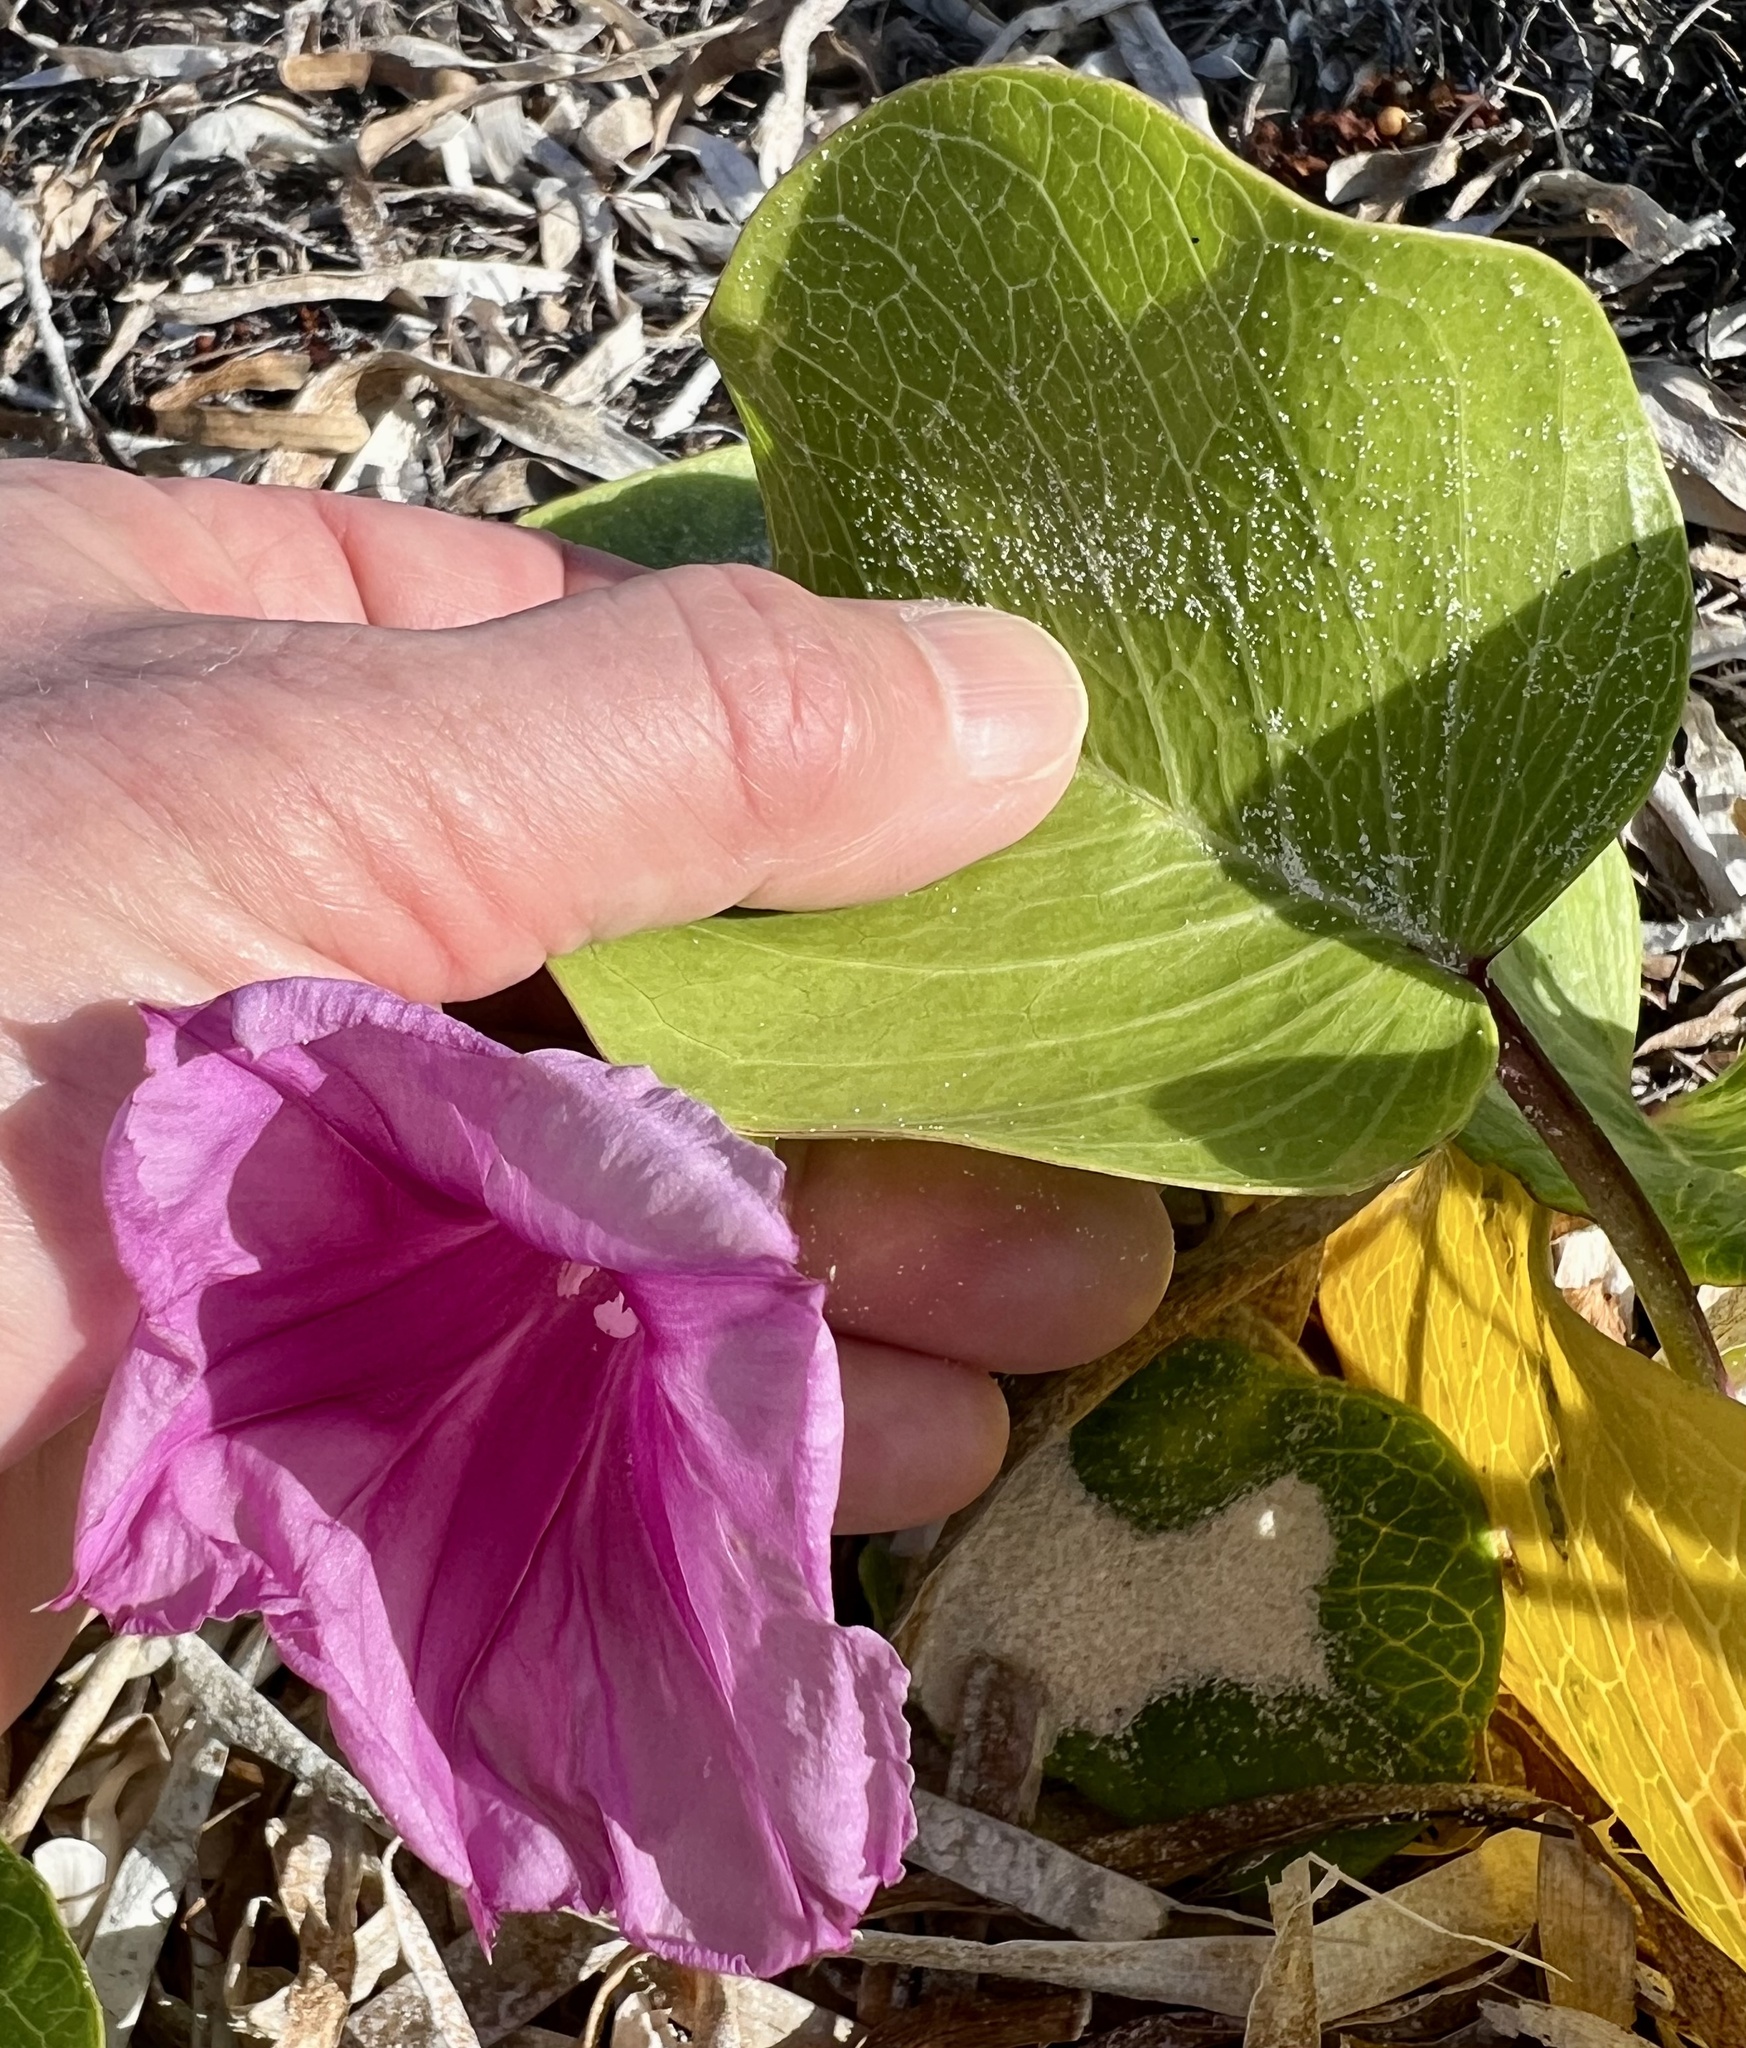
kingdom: Plantae
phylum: Tracheophyta
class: Magnoliopsida
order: Solanales
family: Convolvulaceae
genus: Ipomoea
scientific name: Ipomoea pes-caprae
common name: Beach morning glory
